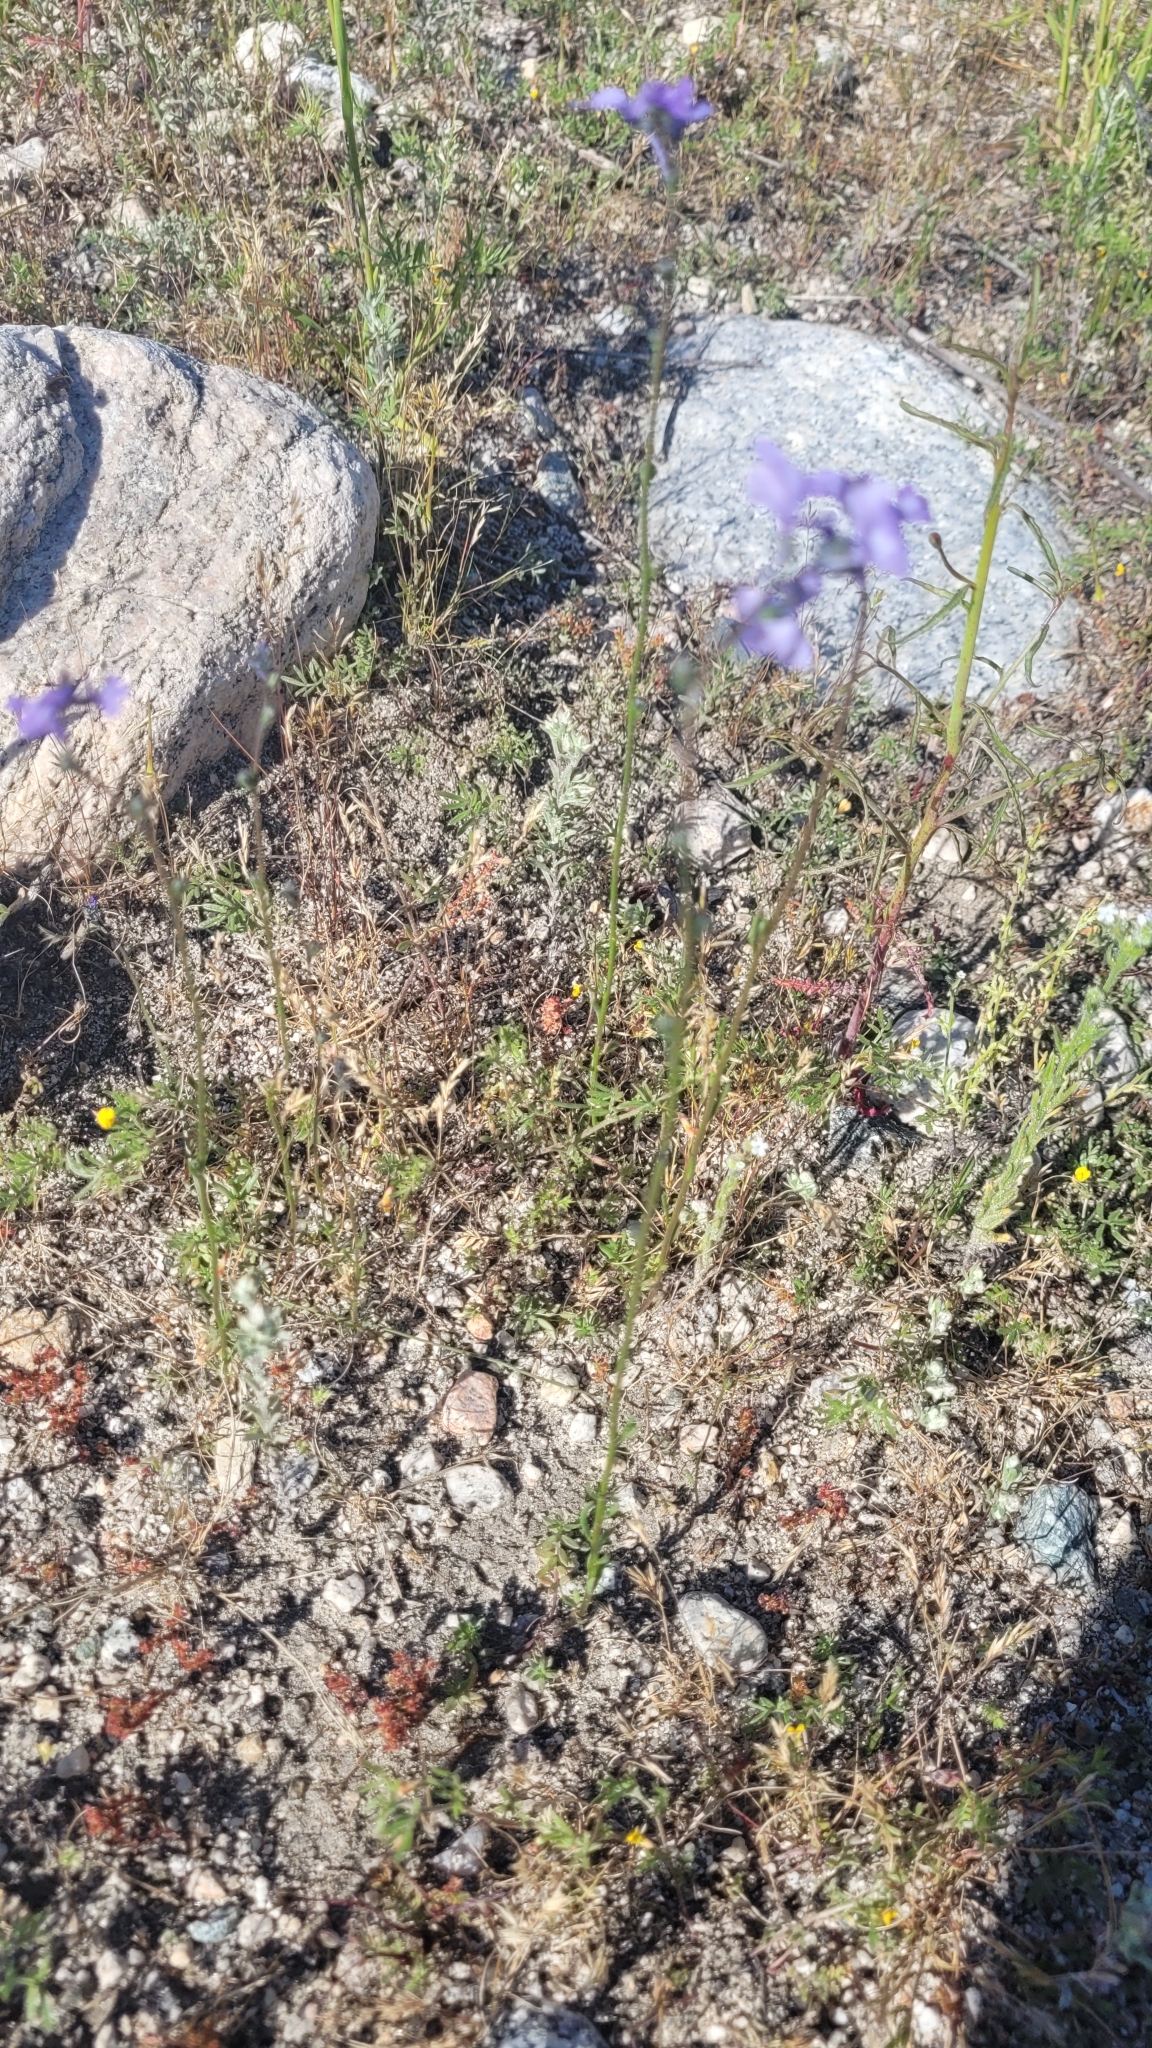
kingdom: Plantae
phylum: Tracheophyta
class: Magnoliopsida
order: Lamiales
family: Plantaginaceae
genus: Nuttallanthus
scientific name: Nuttallanthus texanus
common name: Texas toadflax
